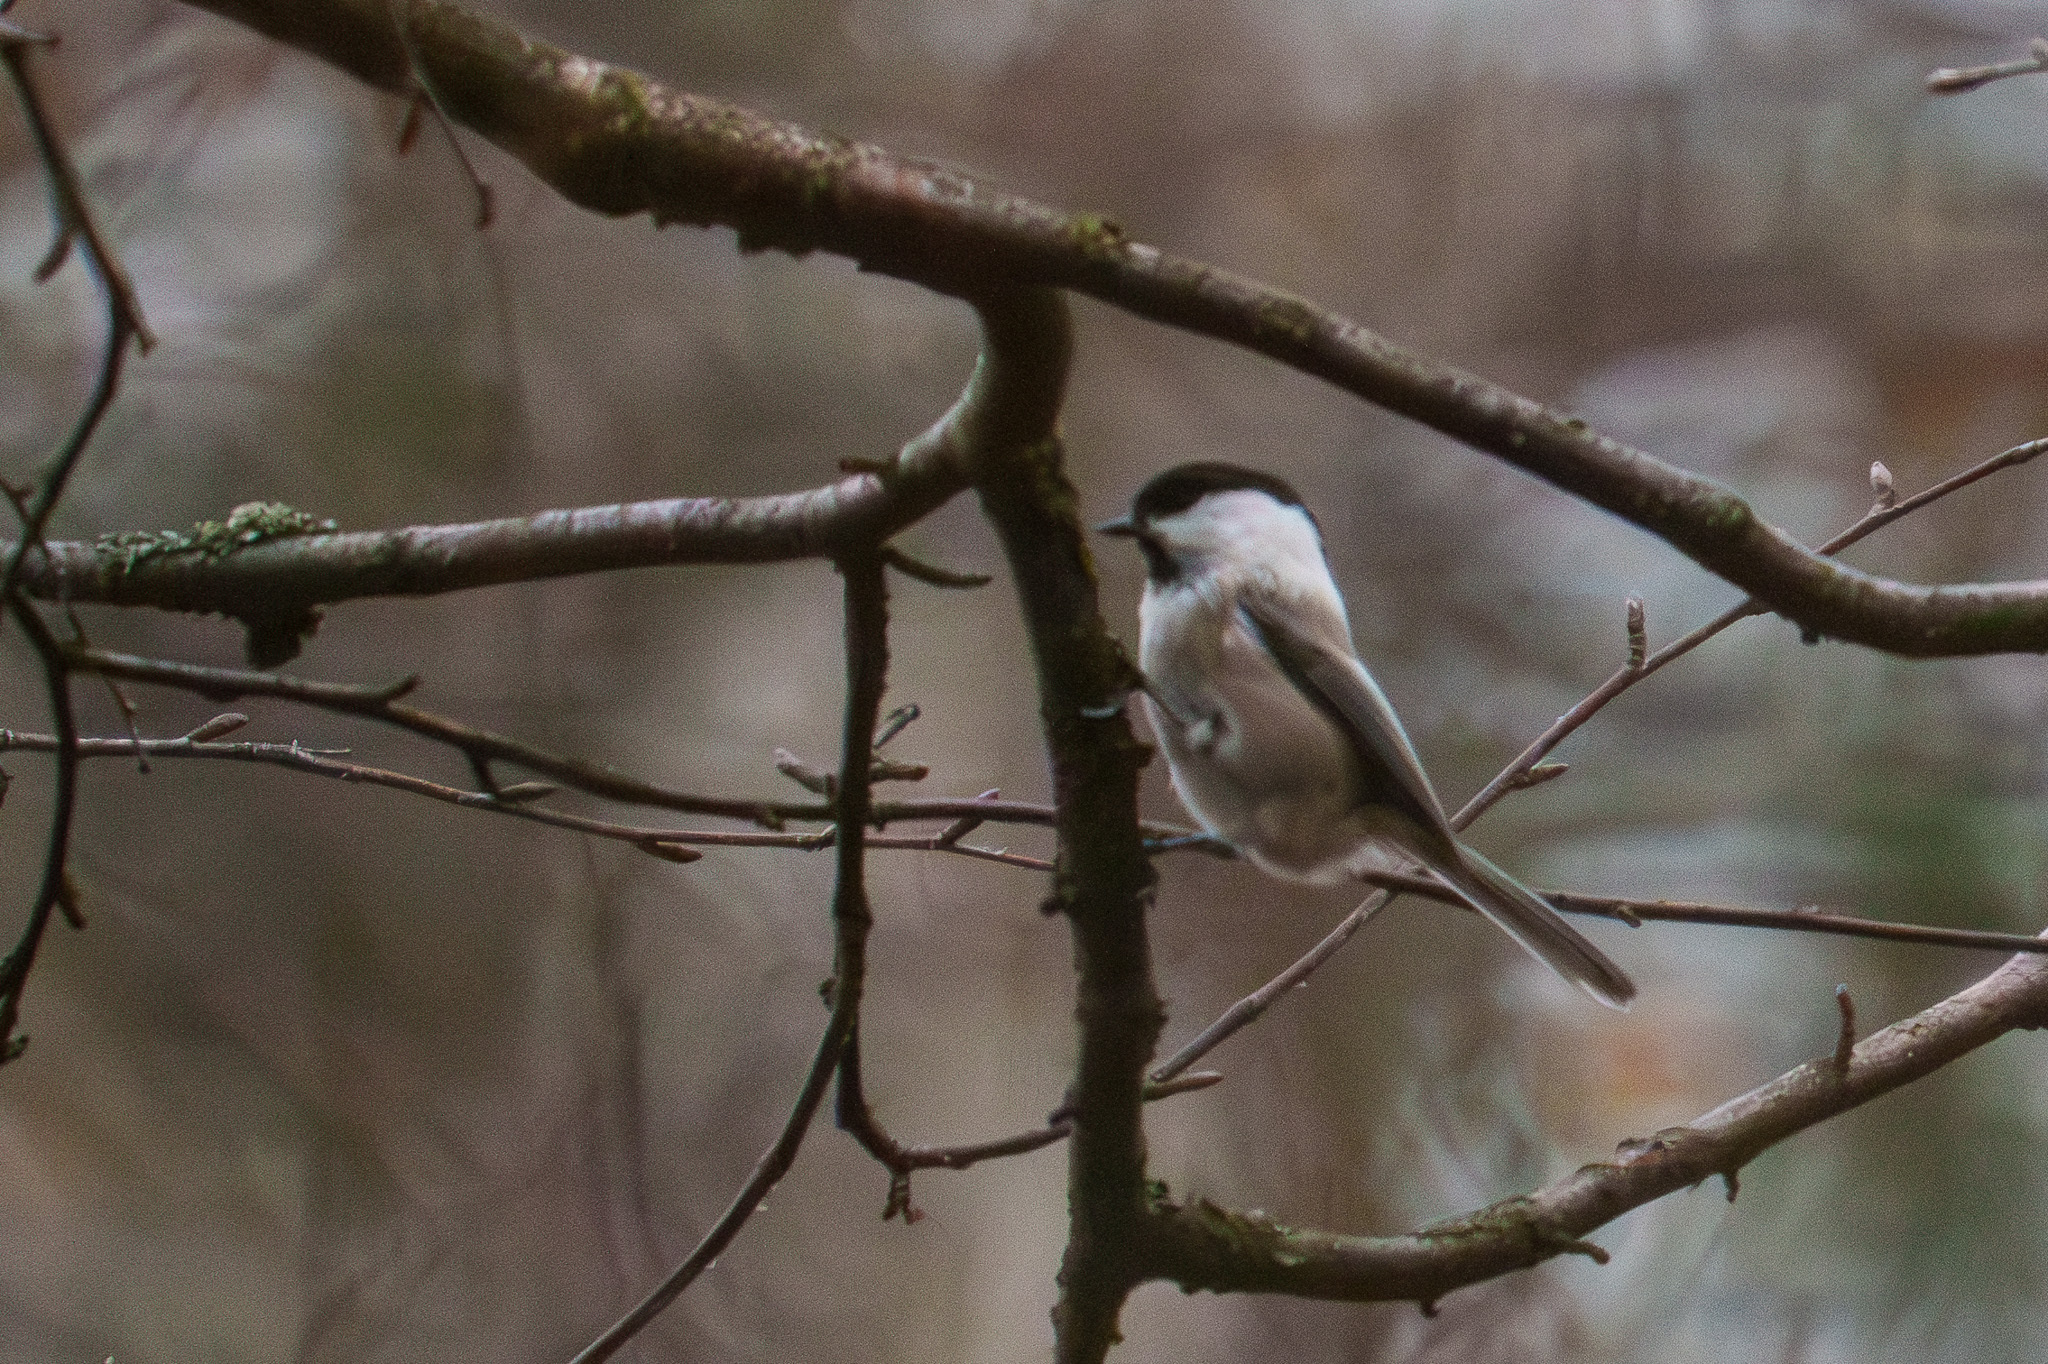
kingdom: Animalia
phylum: Chordata
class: Aves
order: Passeriformes
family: Paridae
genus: Poecile
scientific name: Poecile montanus
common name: Willow tit
